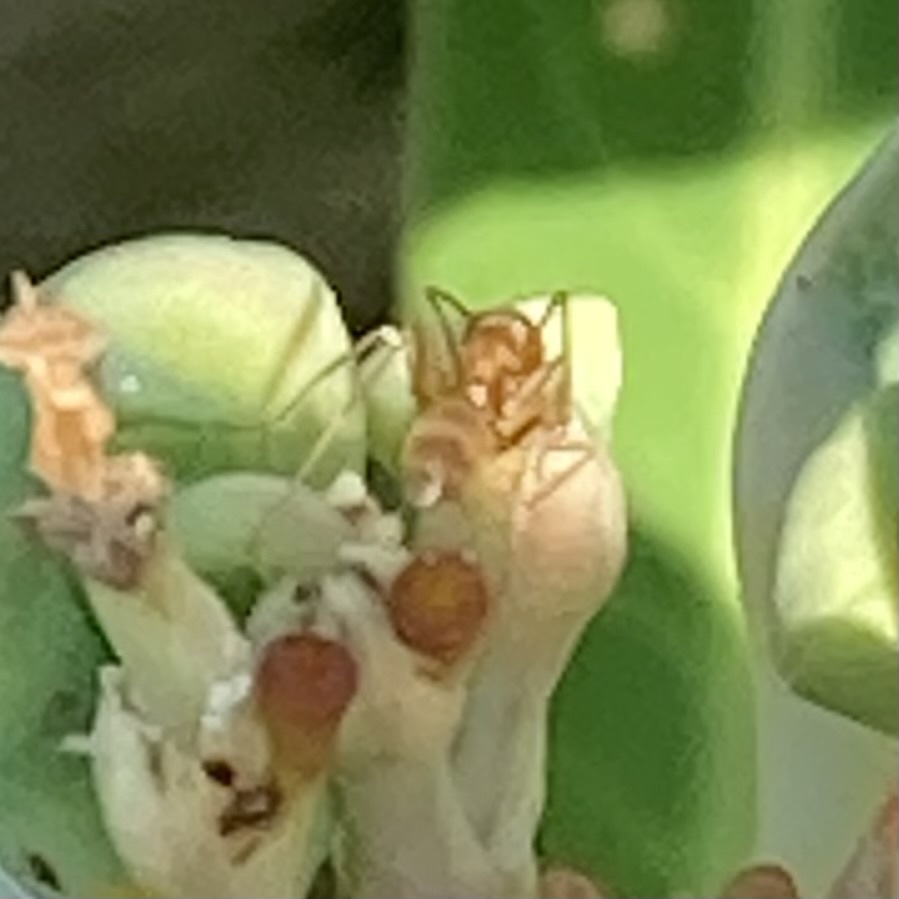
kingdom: Animalia
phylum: Arthropoda
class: Insecta
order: Hymenoptera
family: Formicidae
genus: Dorymyrmex
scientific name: Dorymyrmex bureni
